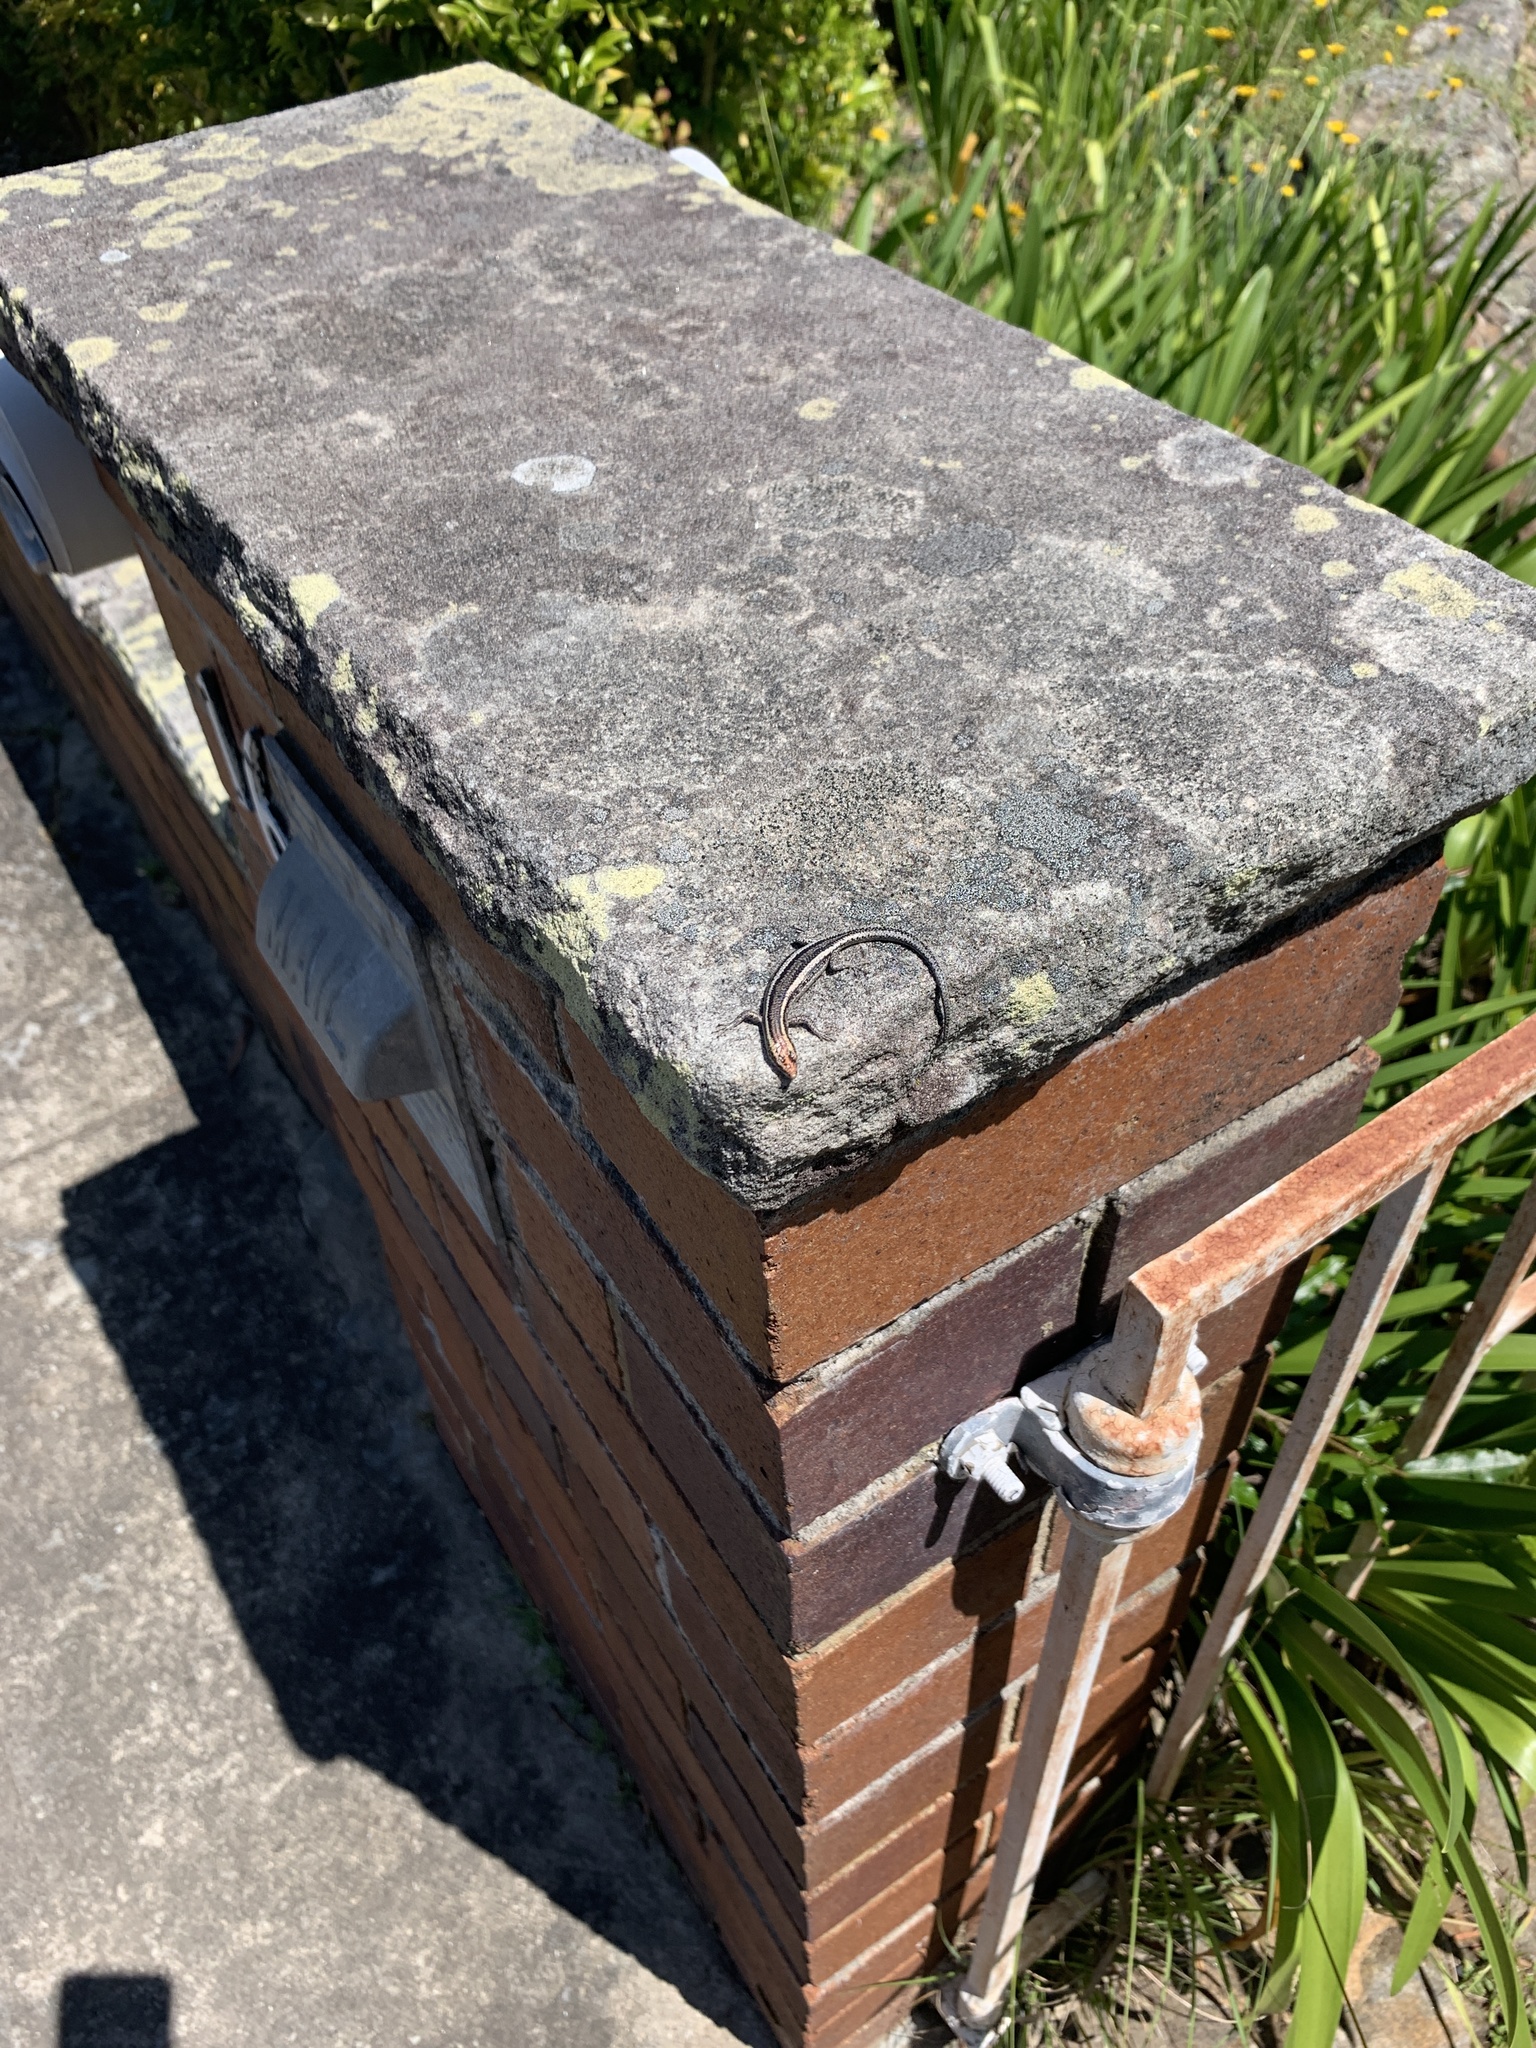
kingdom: Animalia
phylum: Chordata
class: Squamata
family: Scincidae
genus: Cryptoblepharus
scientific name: Cryptoblepharus pulcher
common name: Elegant snake-eyed skink
